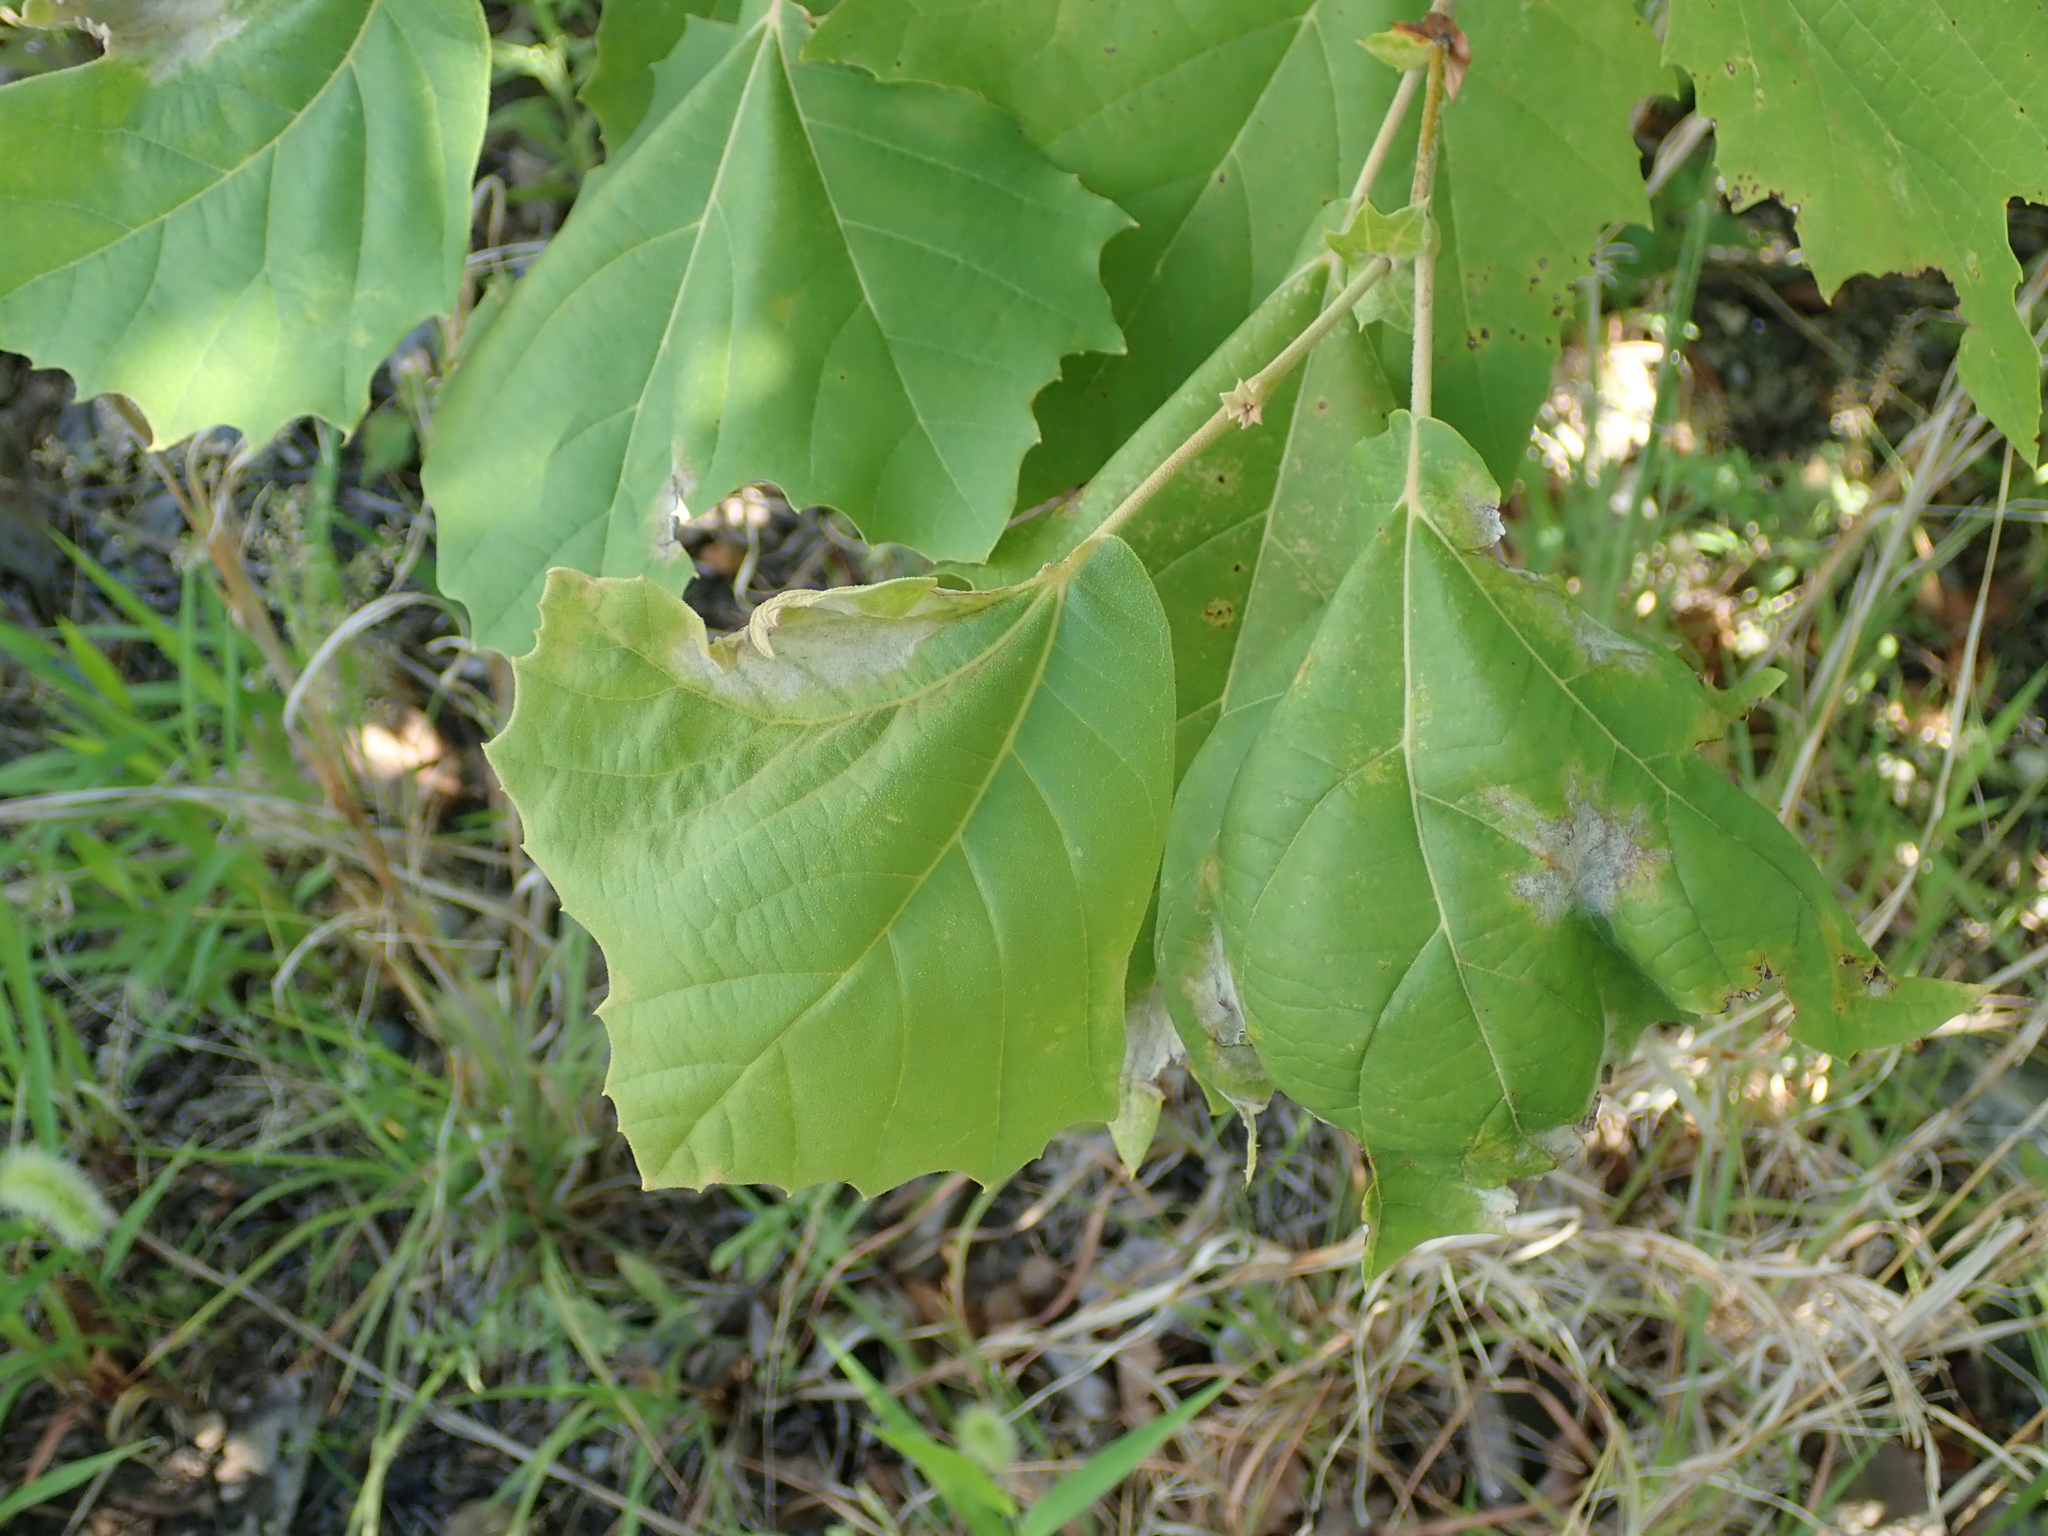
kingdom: Fungi
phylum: Ascomycota
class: Leotiomycetes
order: Helotiales
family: Erysiphaceae
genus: Erysiphe
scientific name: Erysiphe platani
